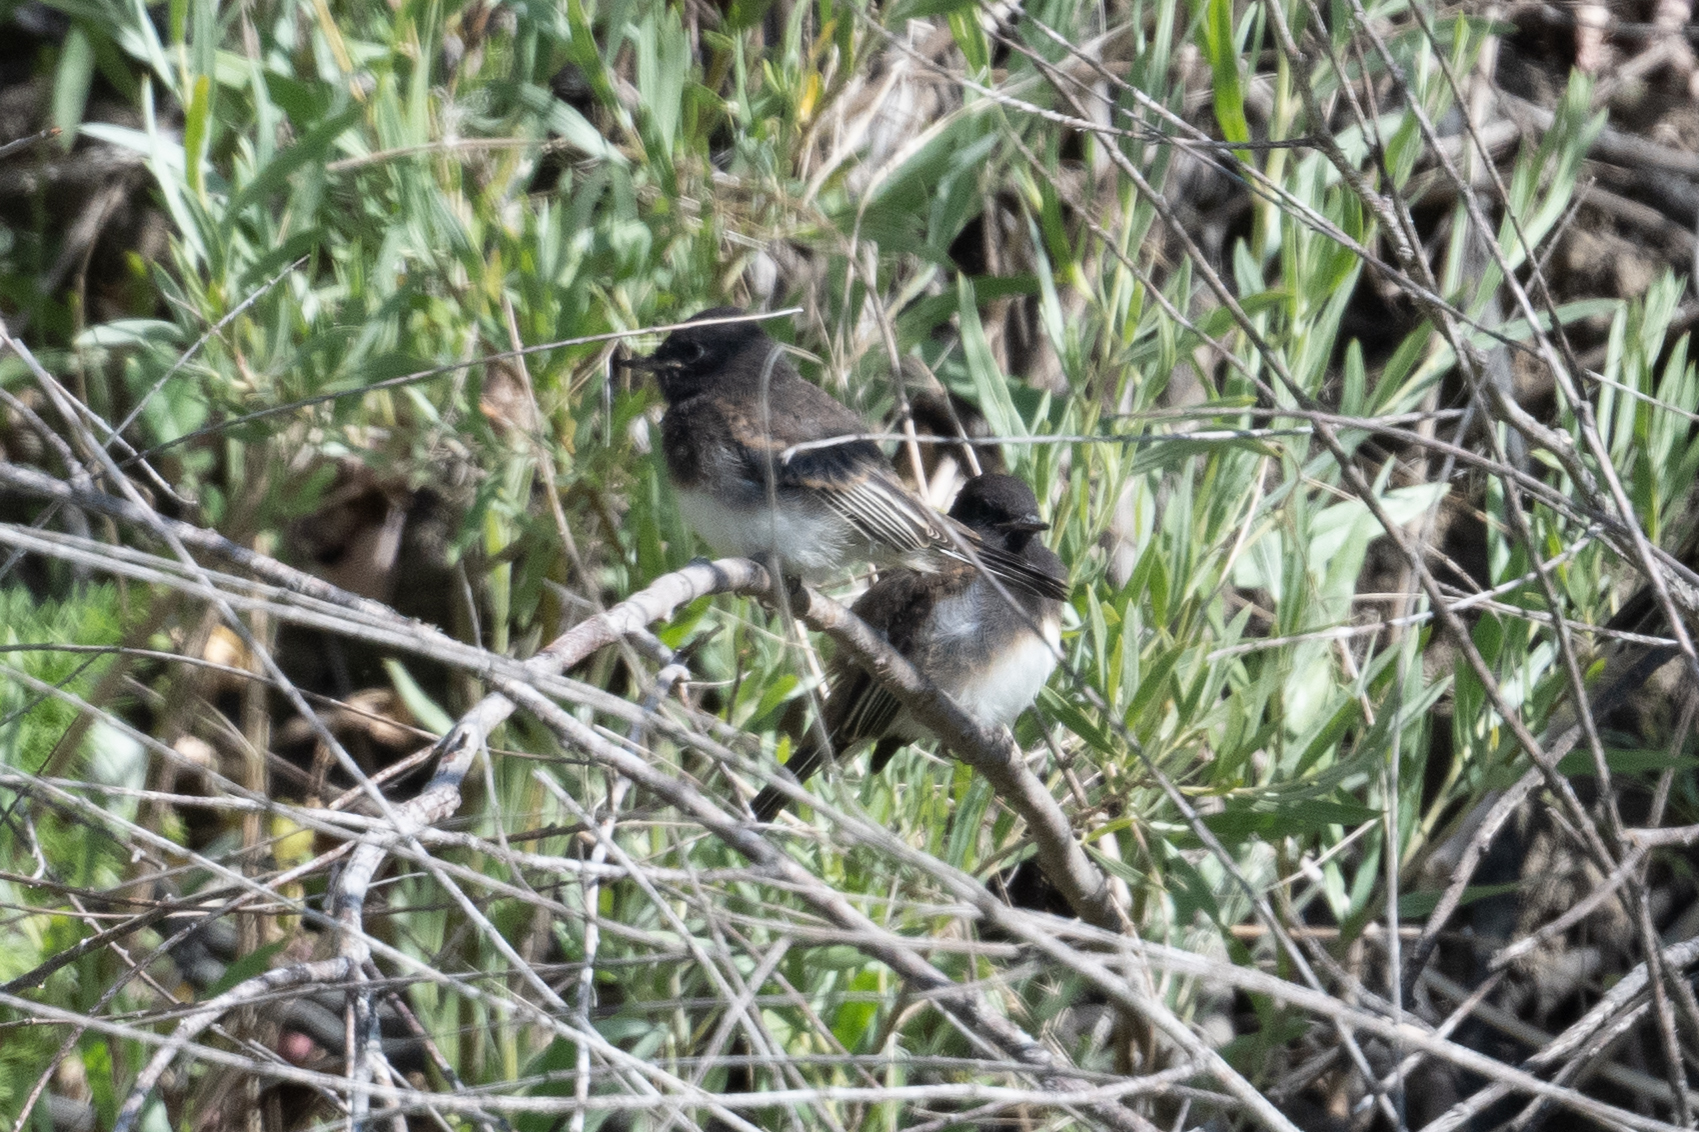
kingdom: Animalia
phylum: Chordata
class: Aves
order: Passeriformes
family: Tyrannidae
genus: Sayornis
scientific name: Sayornis nigricans
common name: Black phoebe
